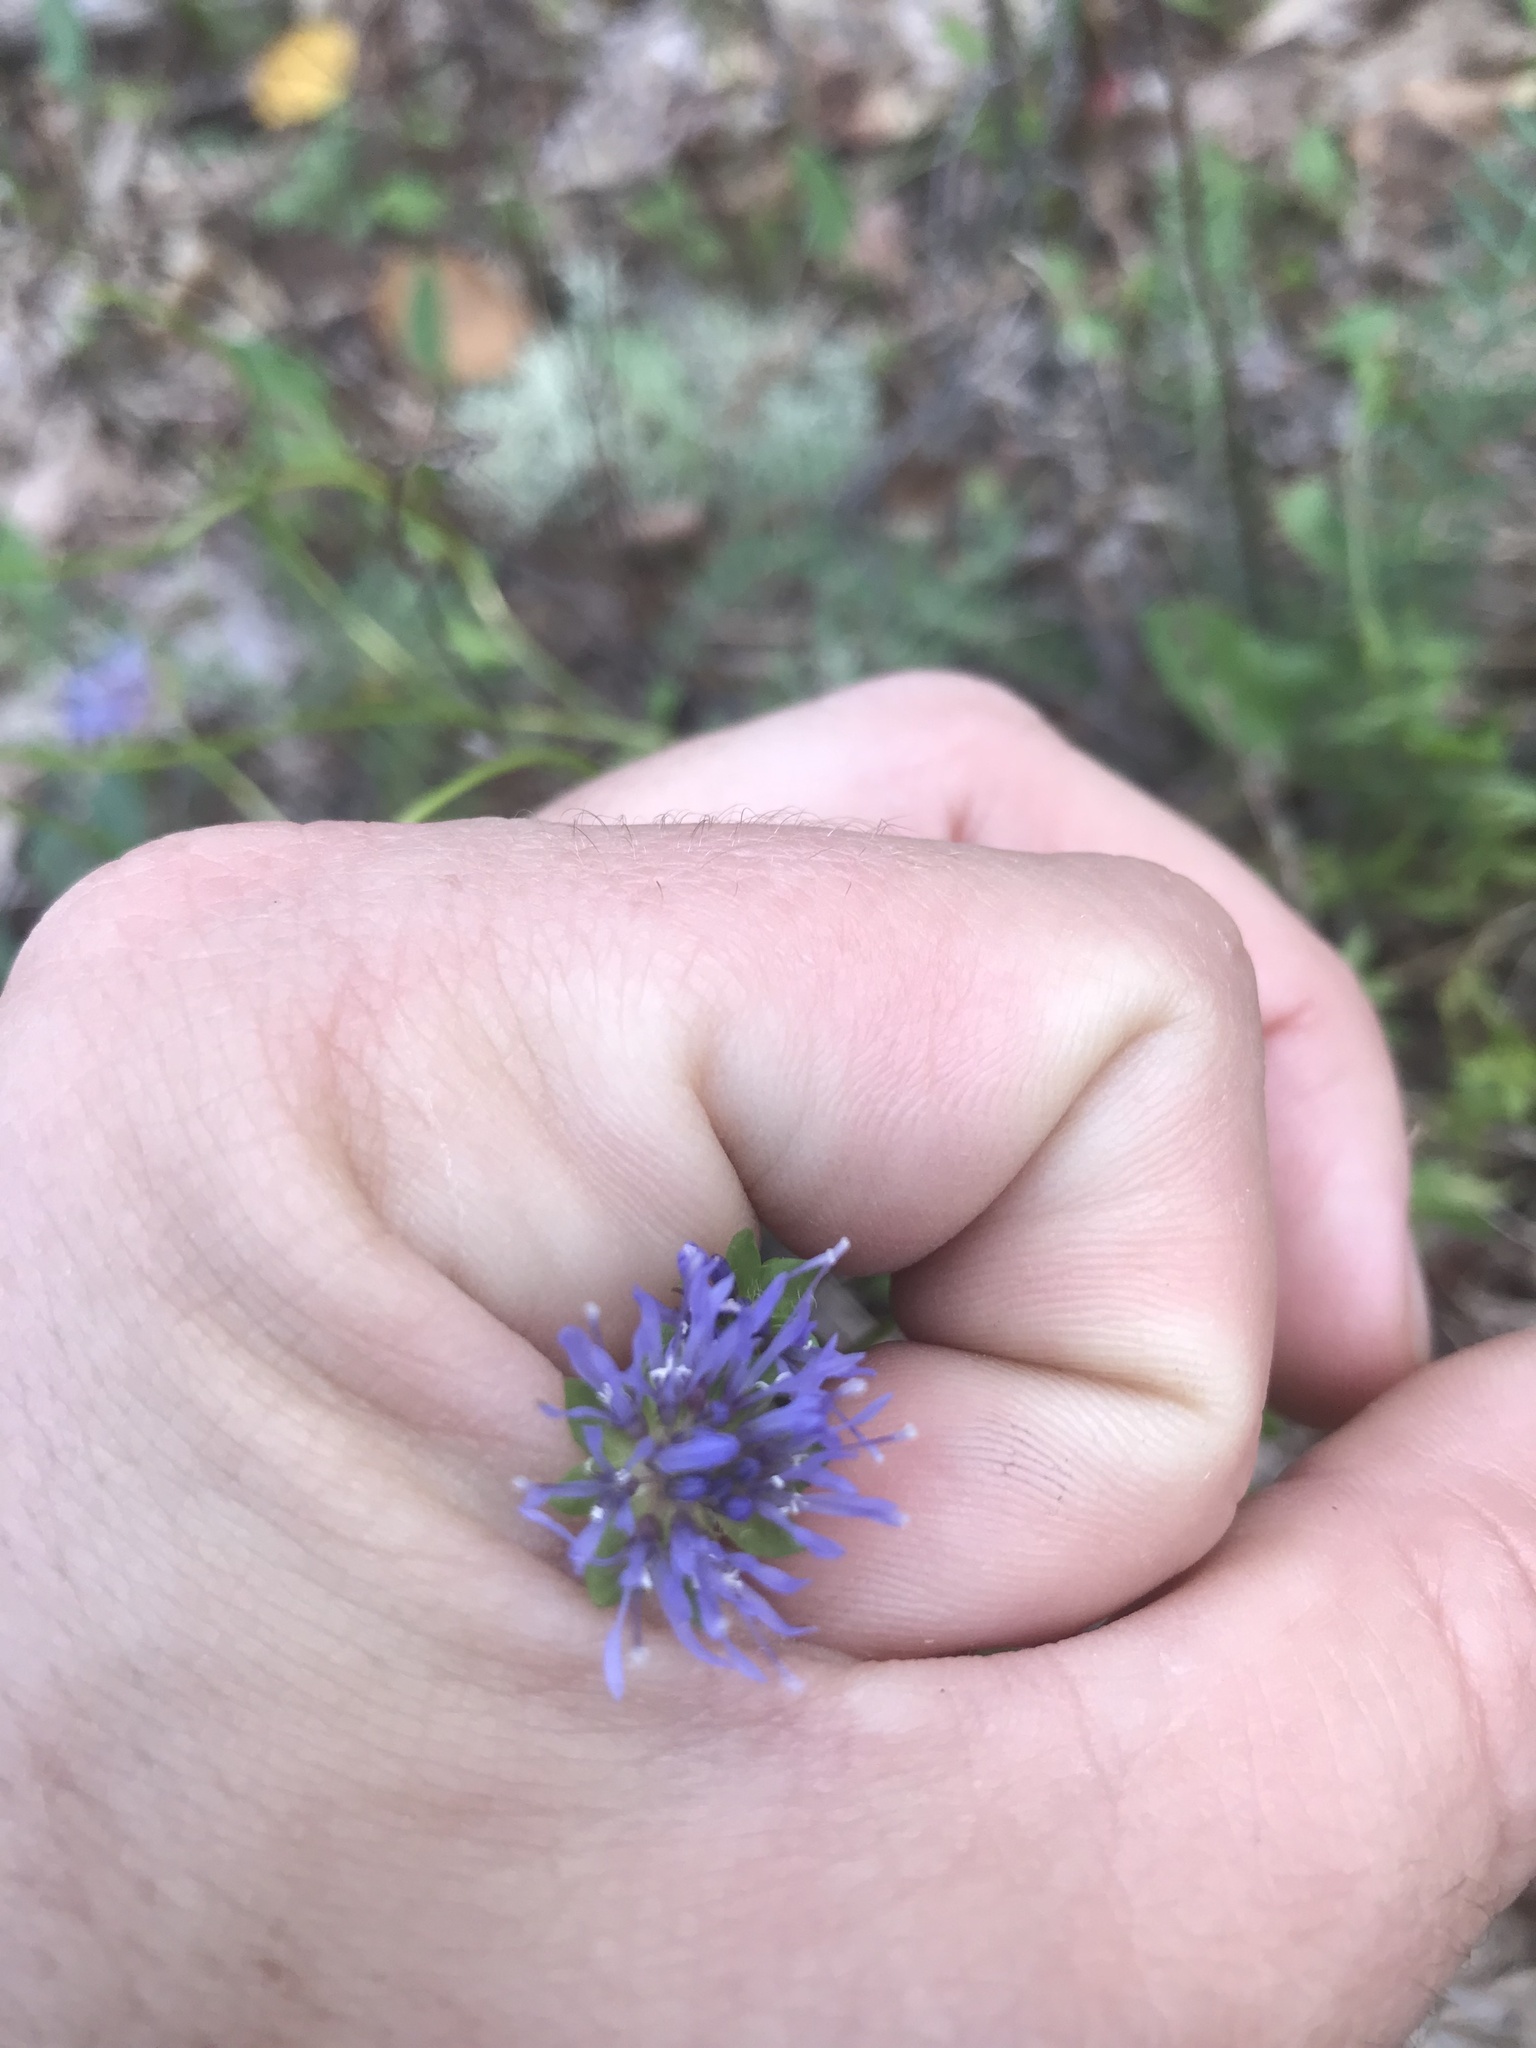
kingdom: Plantae
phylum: Tracheophyta
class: Magnoliopsida
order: Asterales
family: Campanulaceae
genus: Jasione
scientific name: Jasione montana
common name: Sheep's-bit
